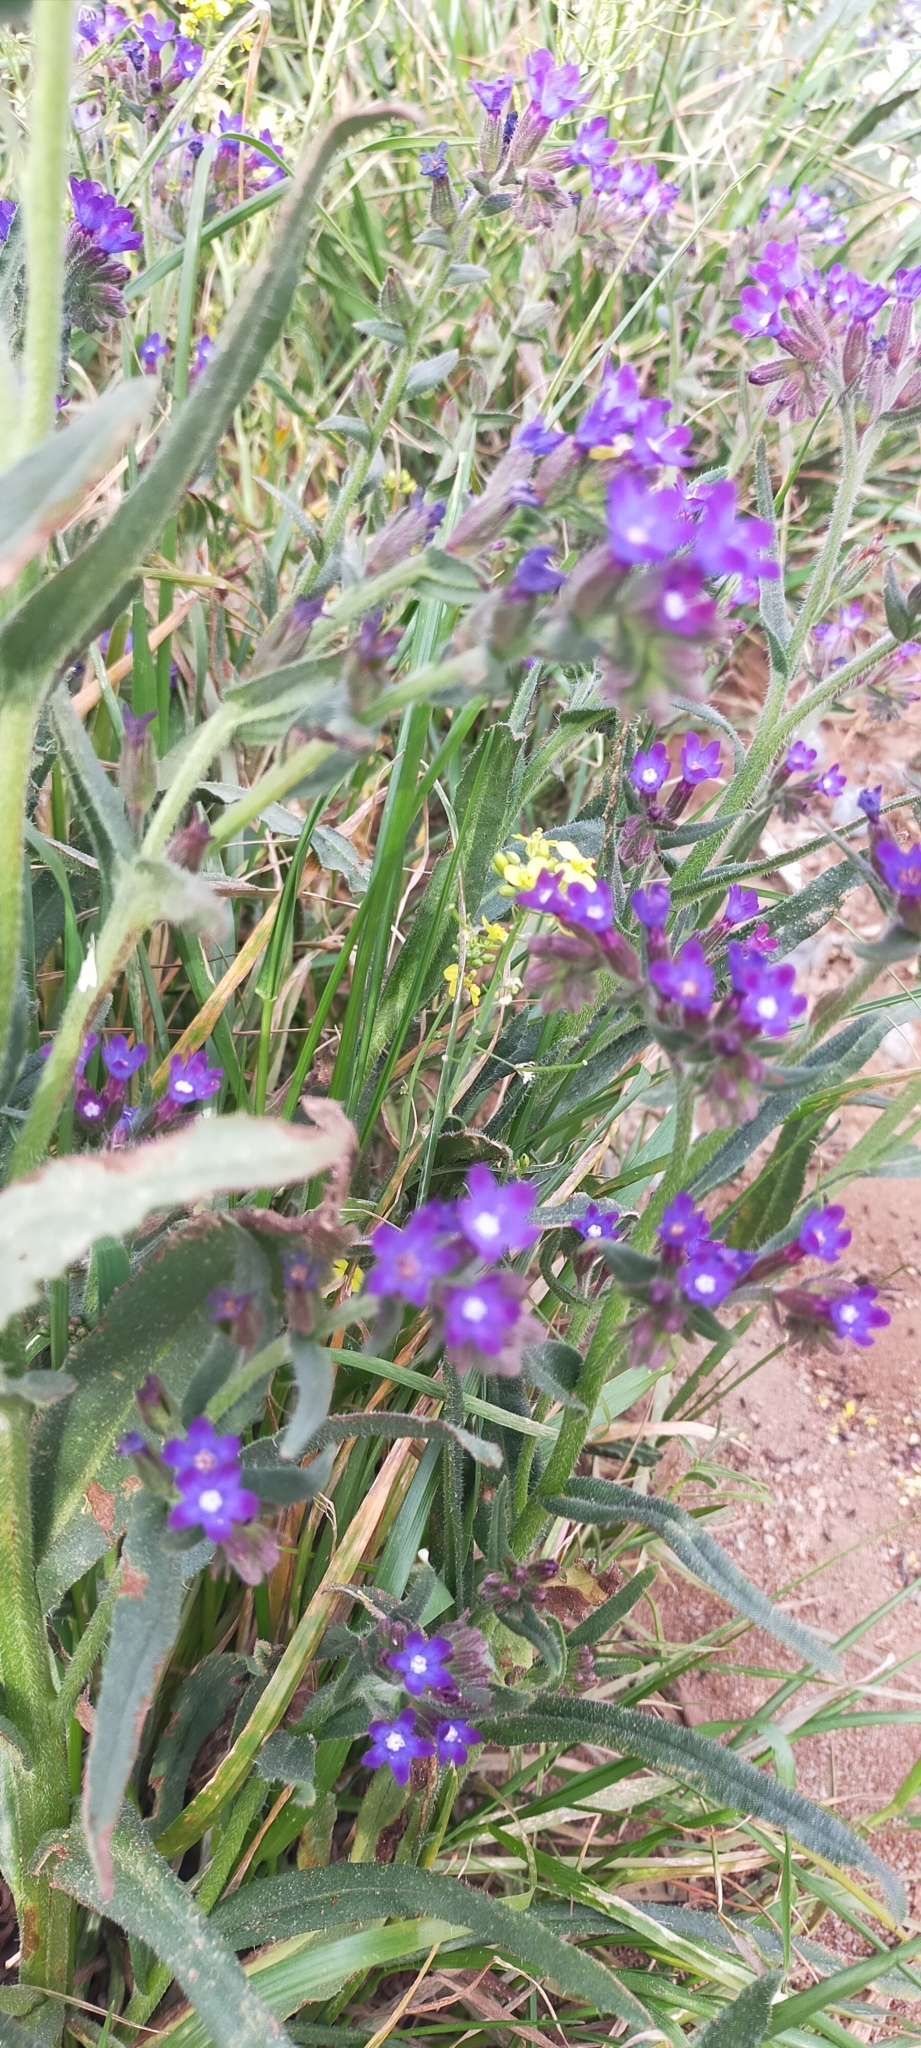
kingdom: Plantae
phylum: Tracheophyta
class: Magnoliopsida
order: Boraginales
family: Boraginaceae
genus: Anchusa
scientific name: Anchusa undulata
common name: Undulate alkanet
